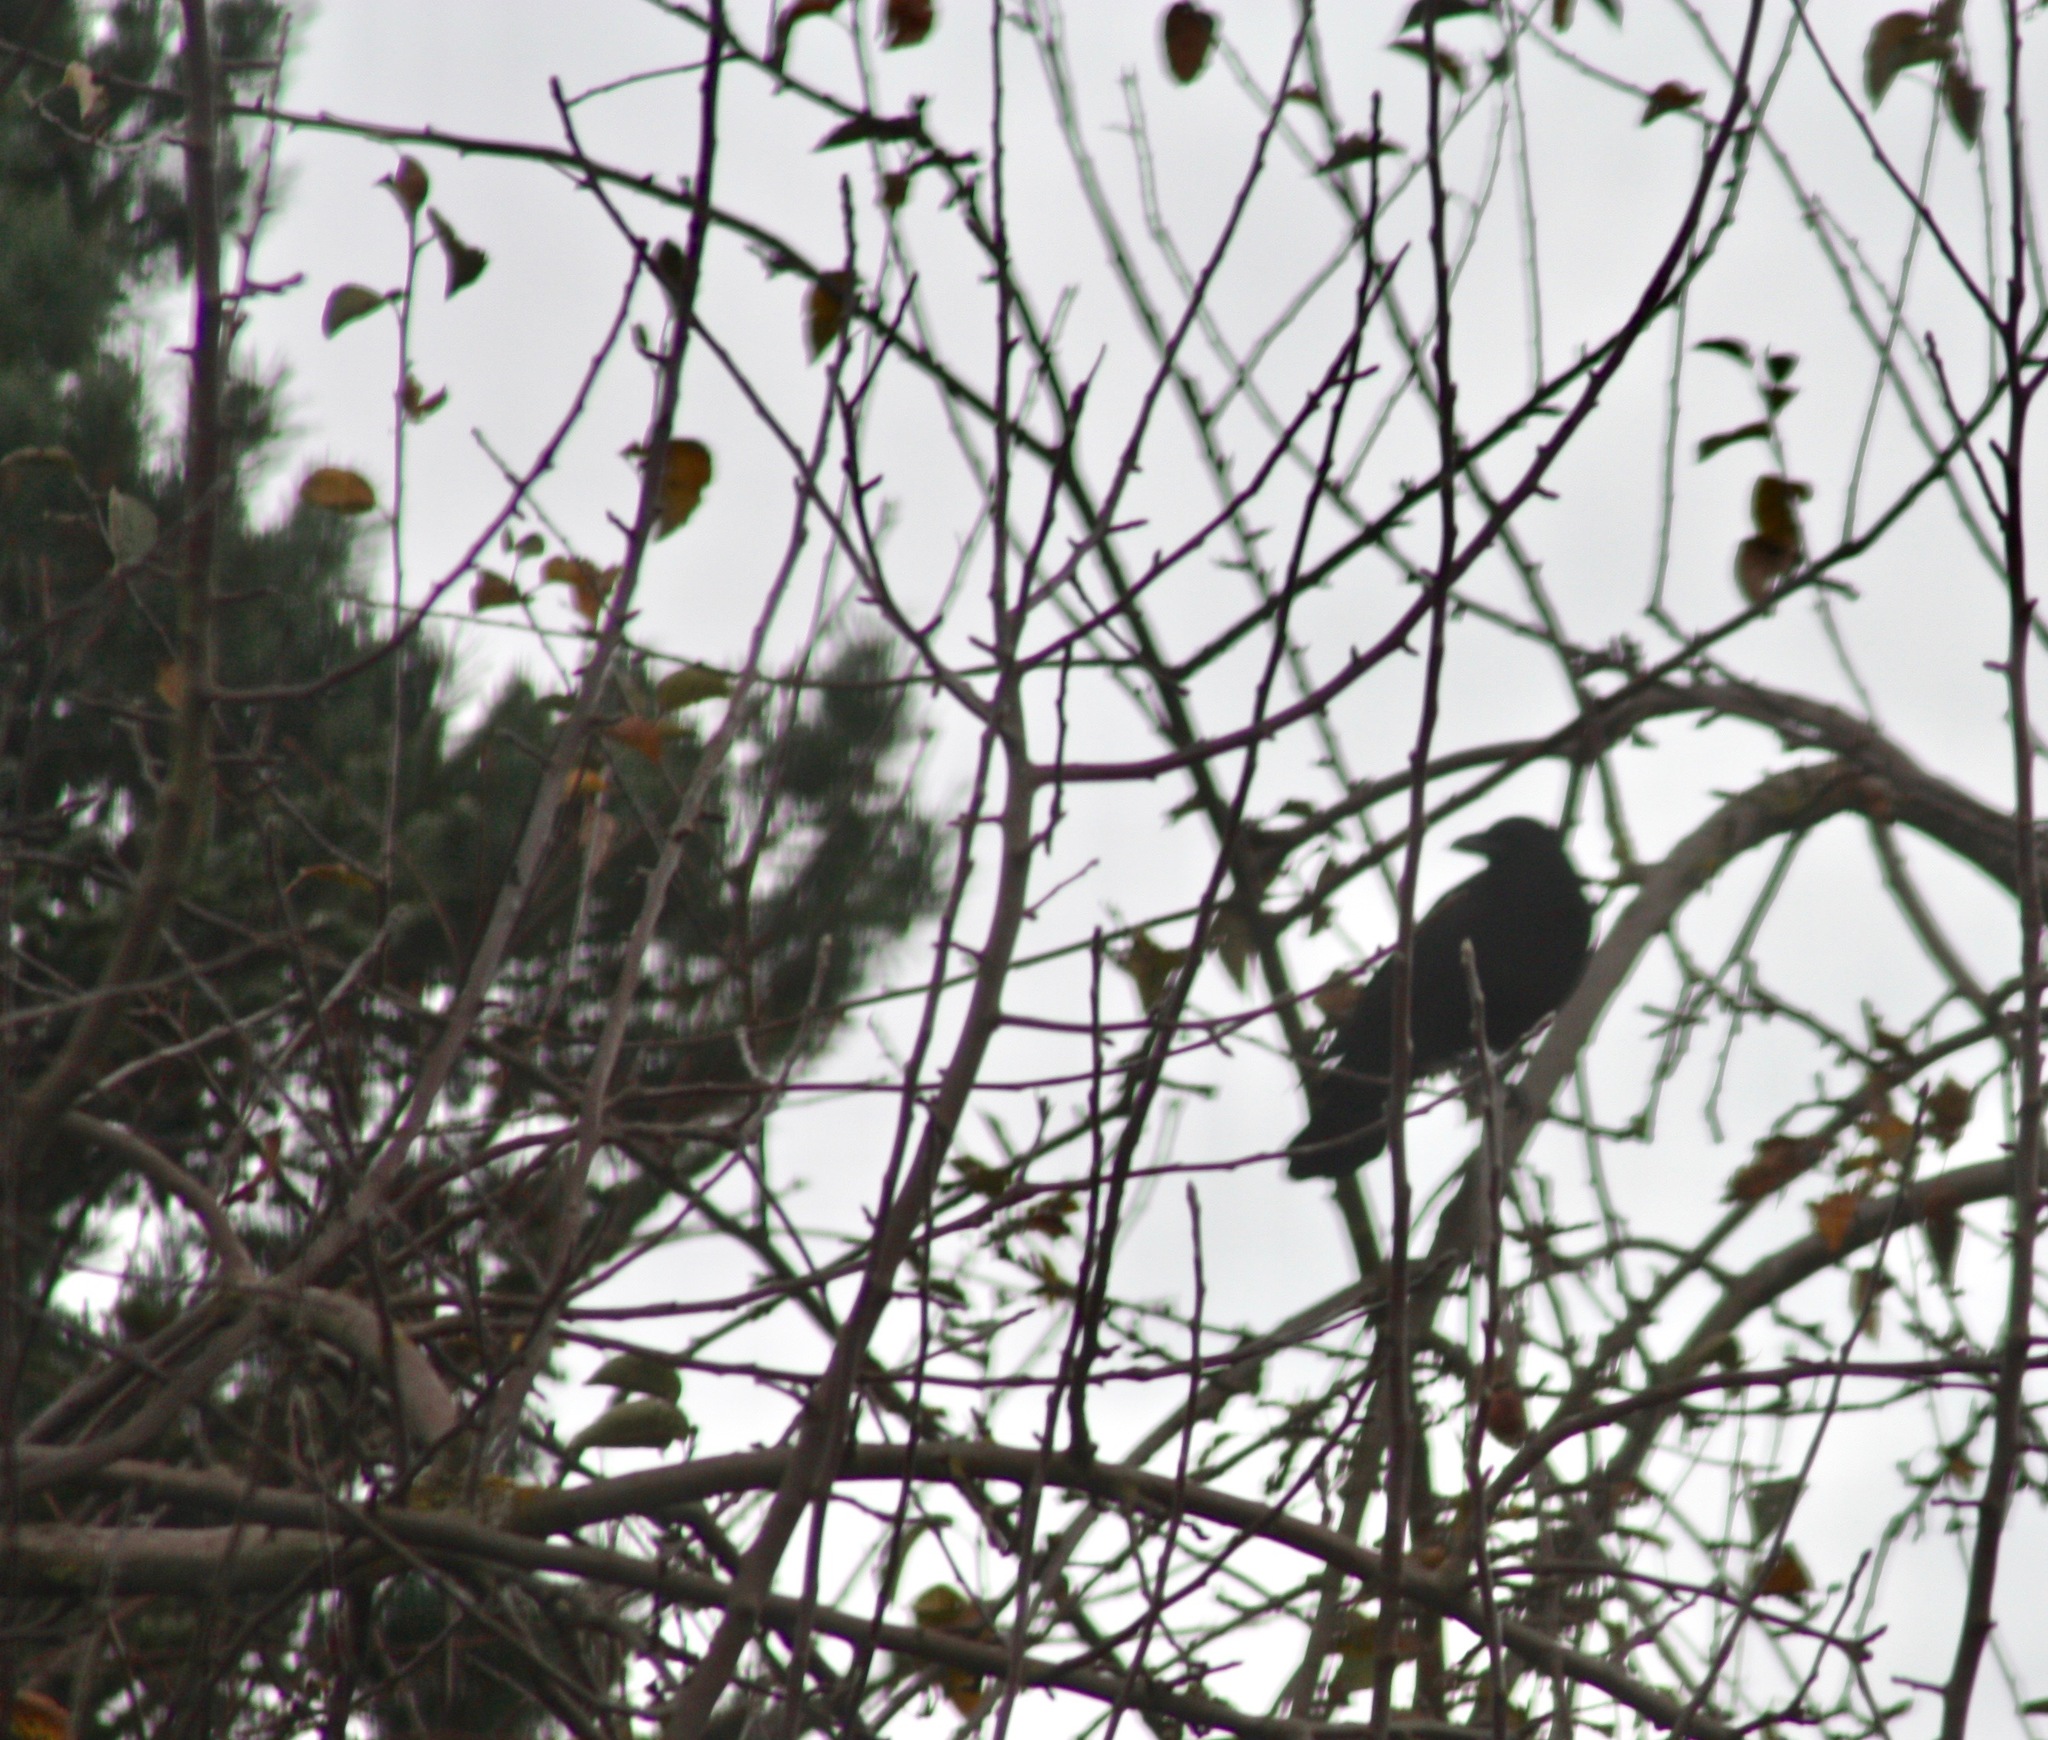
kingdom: Animalia
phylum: Chordata
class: Aves
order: Passeriformes
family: Corvidae
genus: Corvus
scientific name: Corvus brachyrhynchos
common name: American crow
